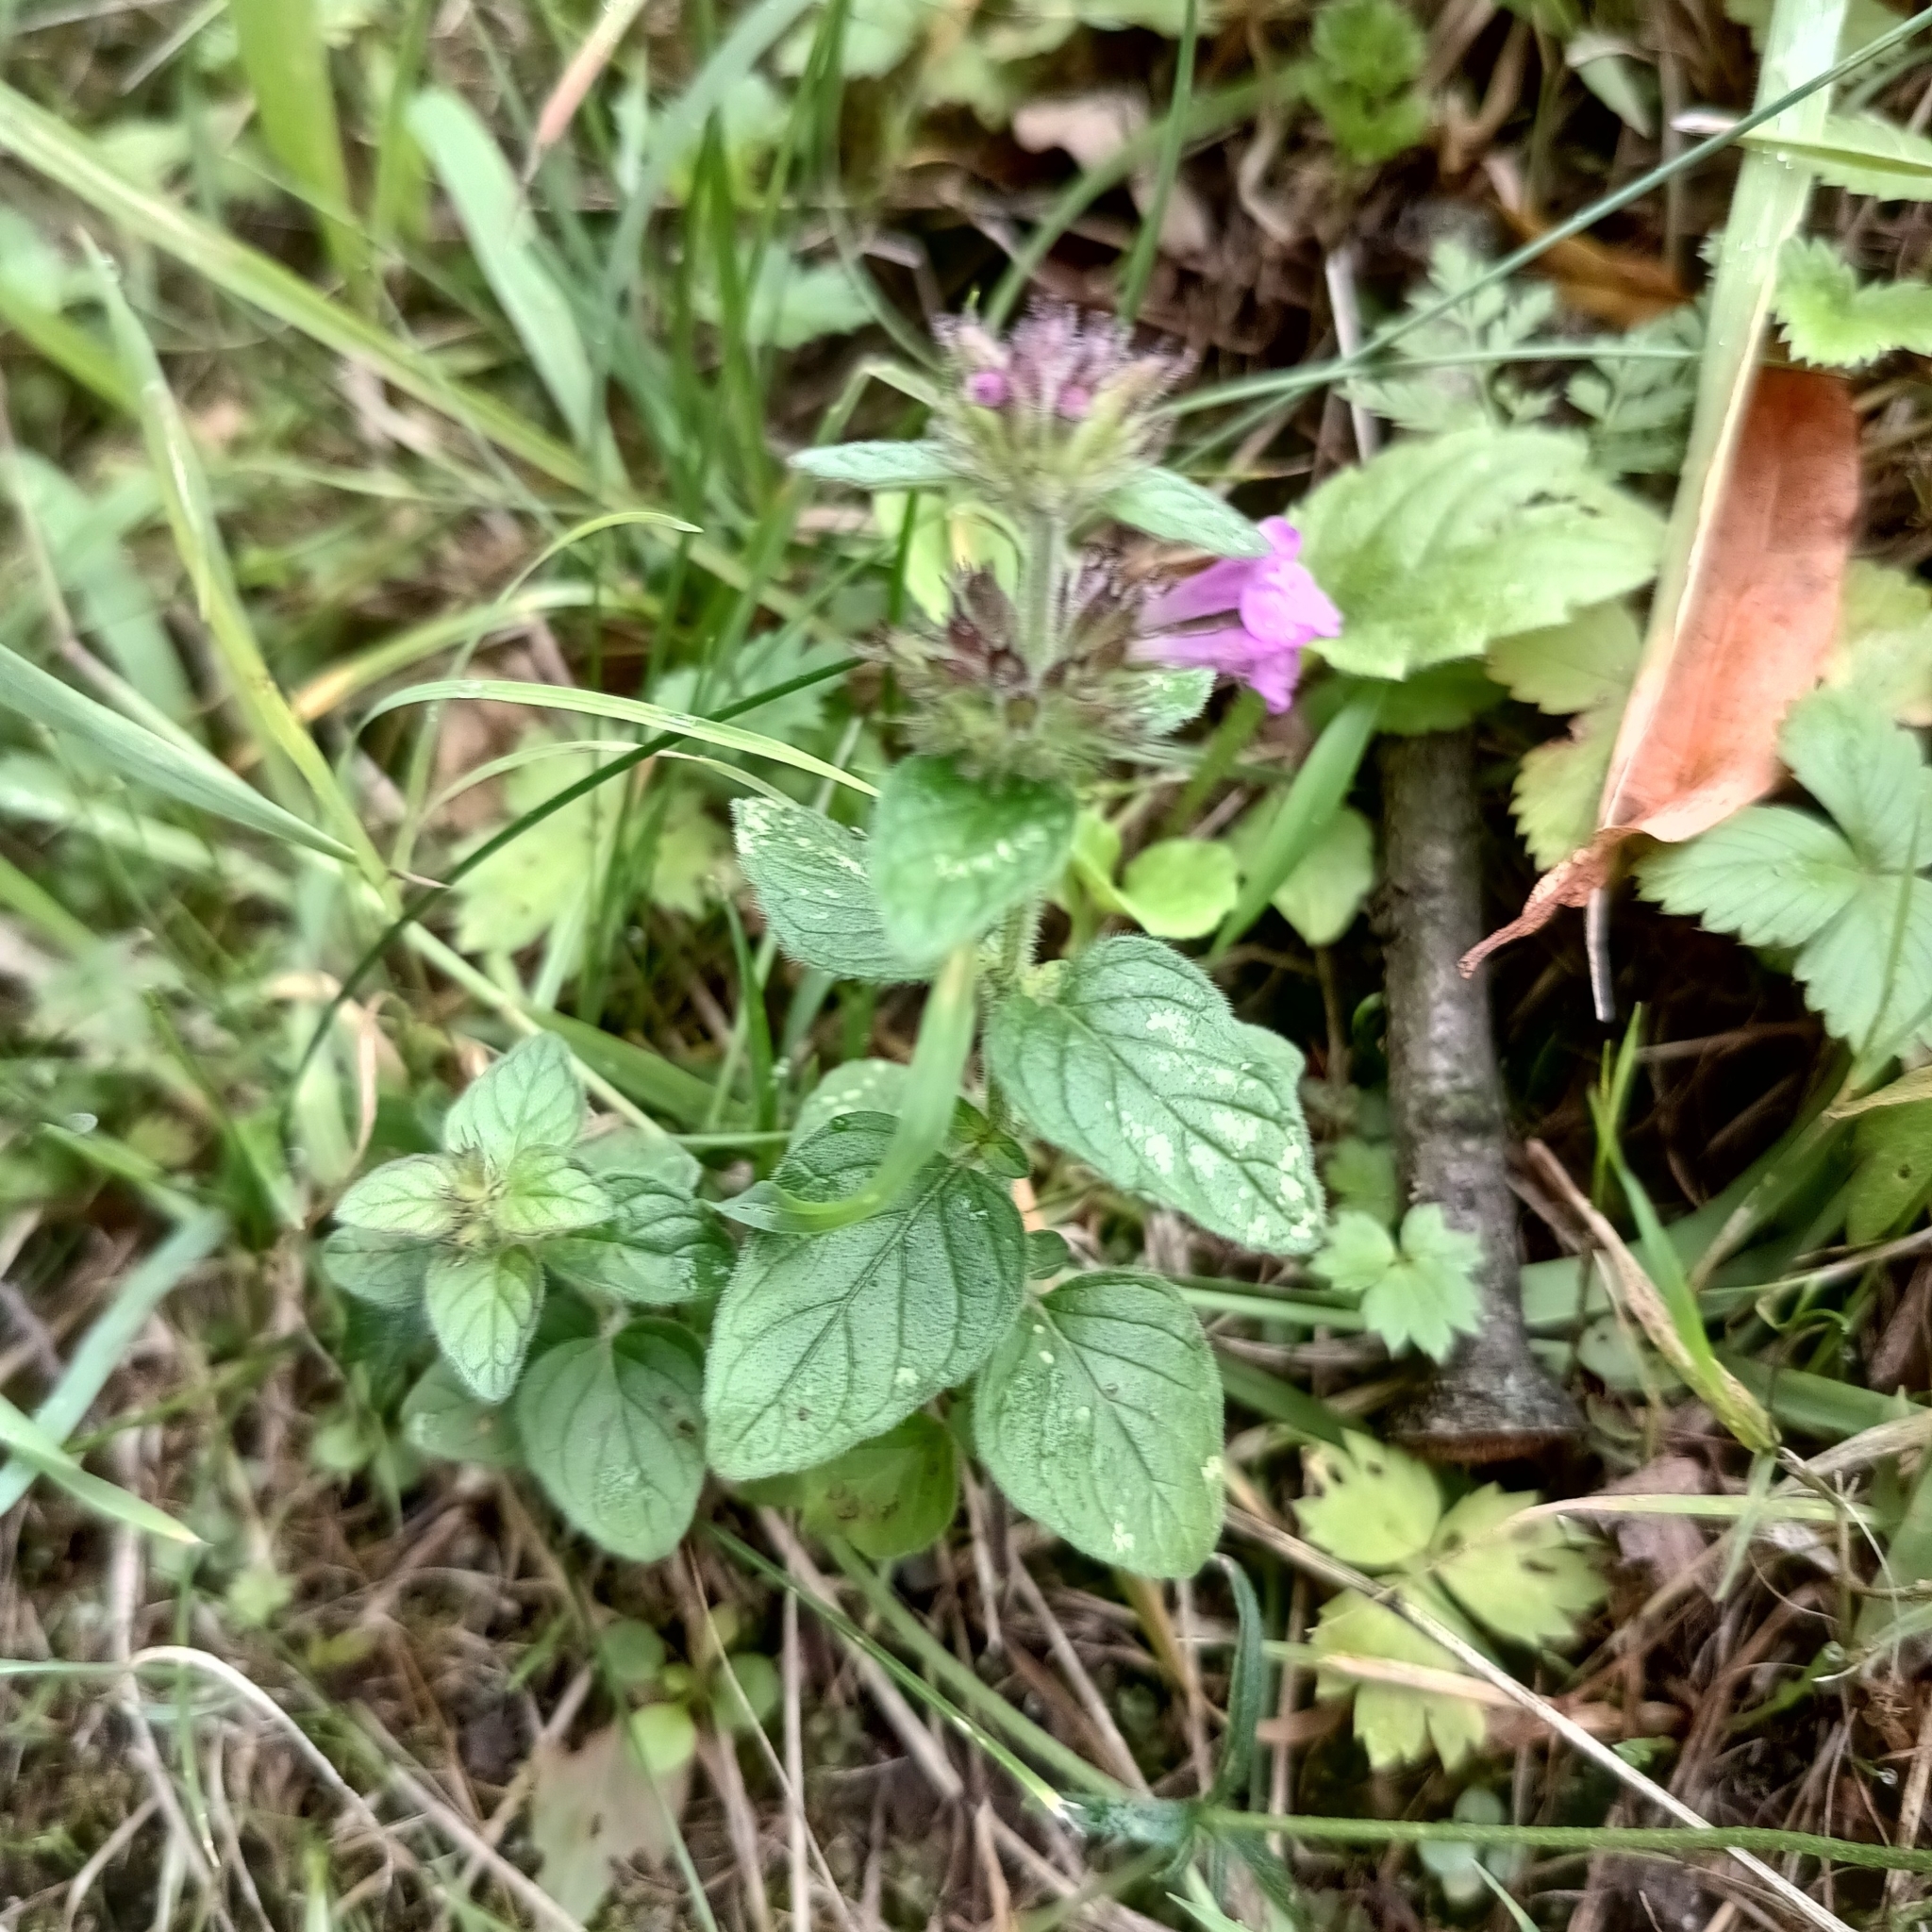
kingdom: Plantae
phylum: Tracheophyta
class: Magnoliopsida
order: Lamiales
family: Lamiaceae
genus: Clinopodium
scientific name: Clinopodium vulgare
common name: Wild basil
